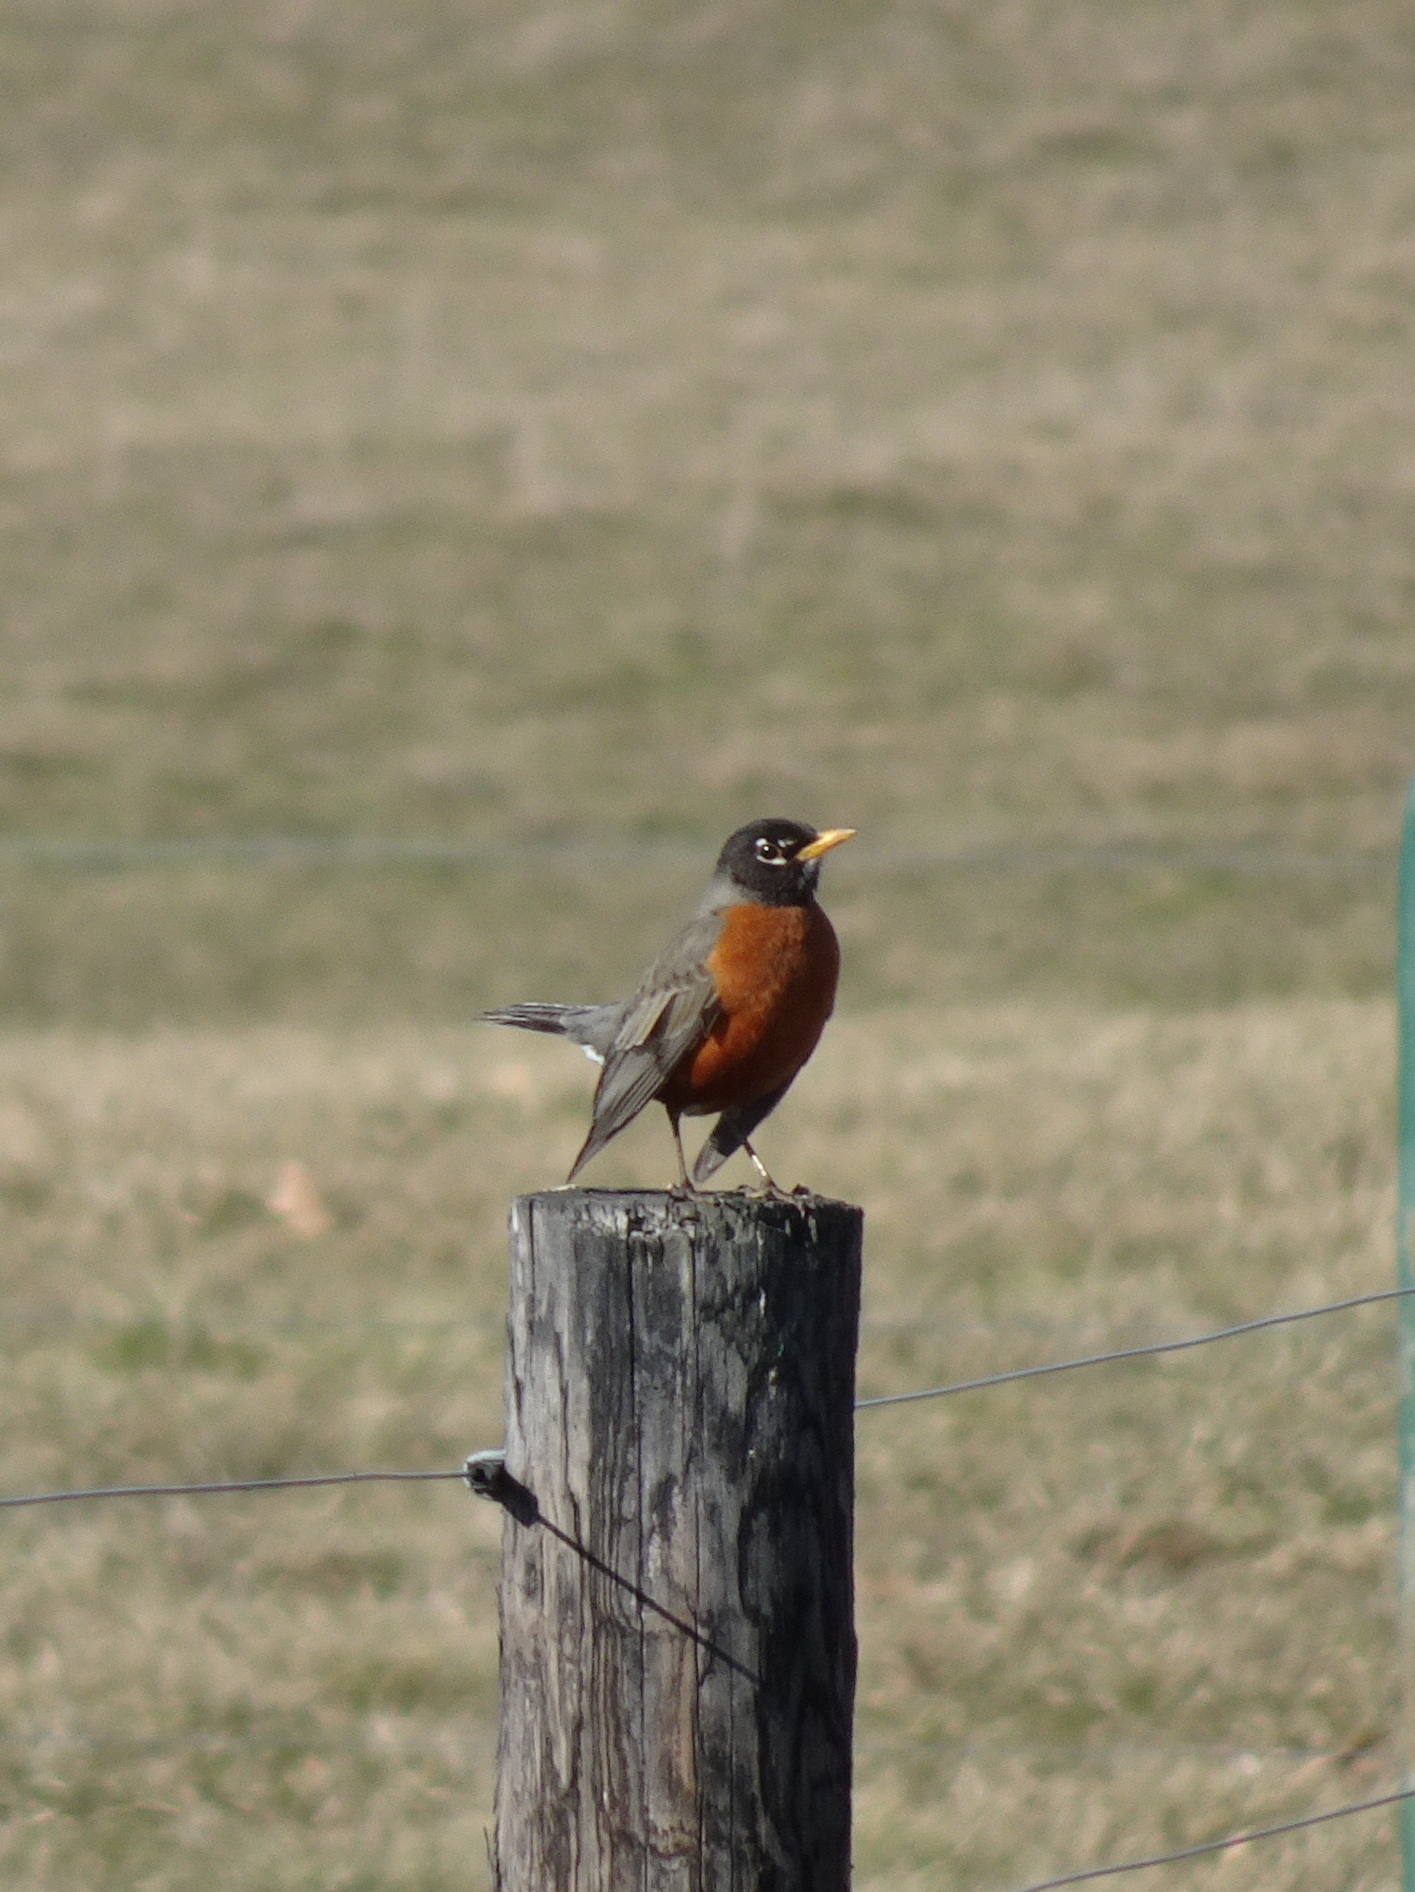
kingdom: Animalia
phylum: Chordata
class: Aves
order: Passeriformes
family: Turdidae
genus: Turdus
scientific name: Turdus migratorius
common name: American robin
